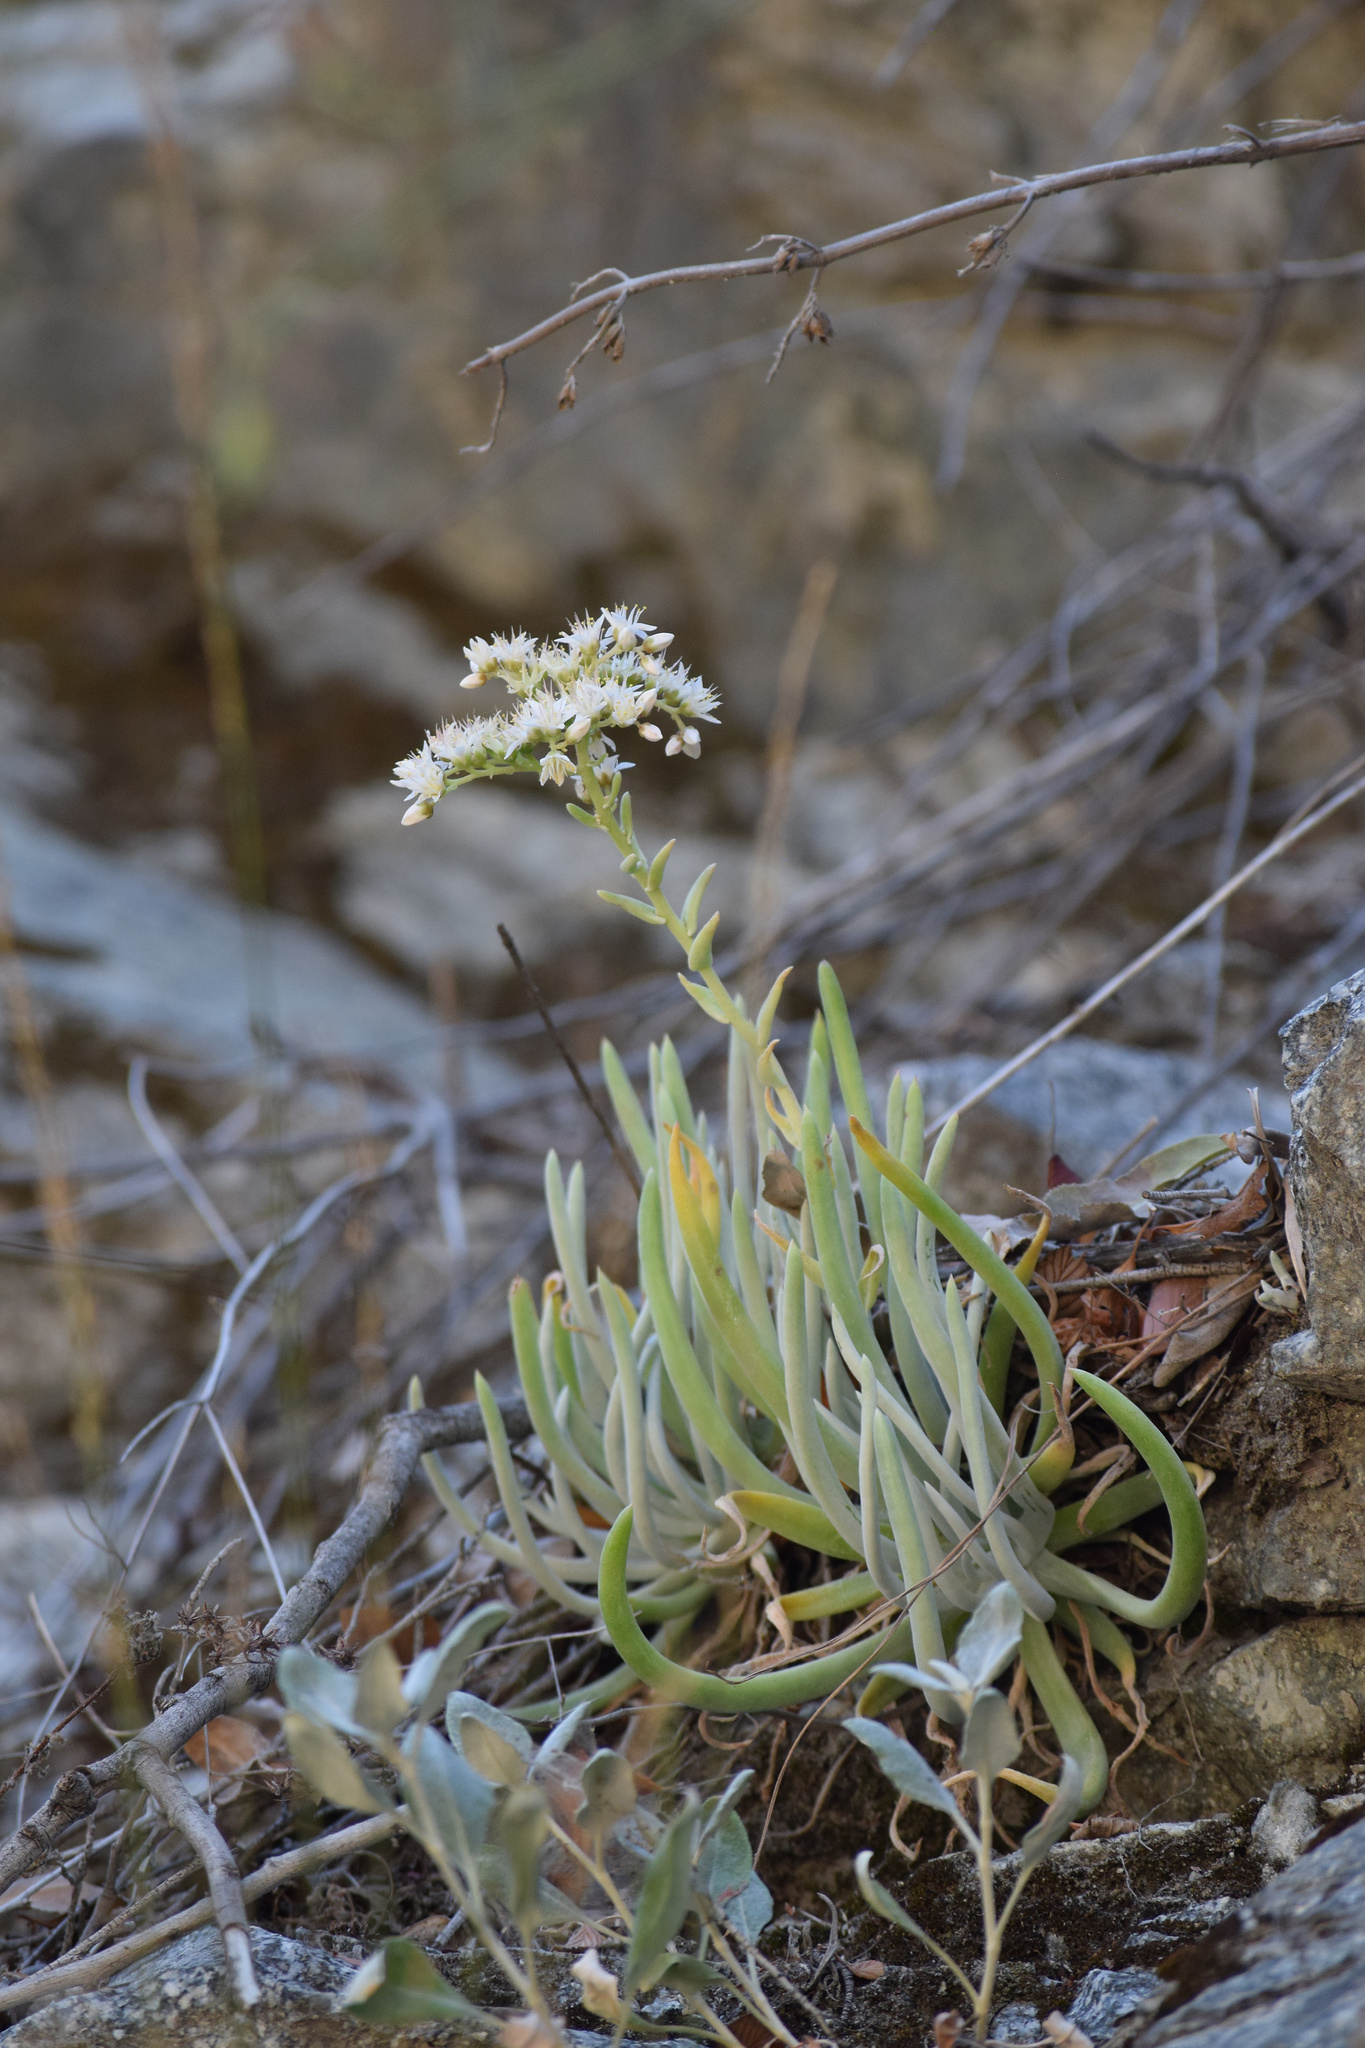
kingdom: Plantae
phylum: Tracheophyta
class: Magnoliopsida
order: Saxifragales
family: Crassulaceae
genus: Dudleya
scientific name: Dudleya densiflora
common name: San gabriel mountains dudleya
